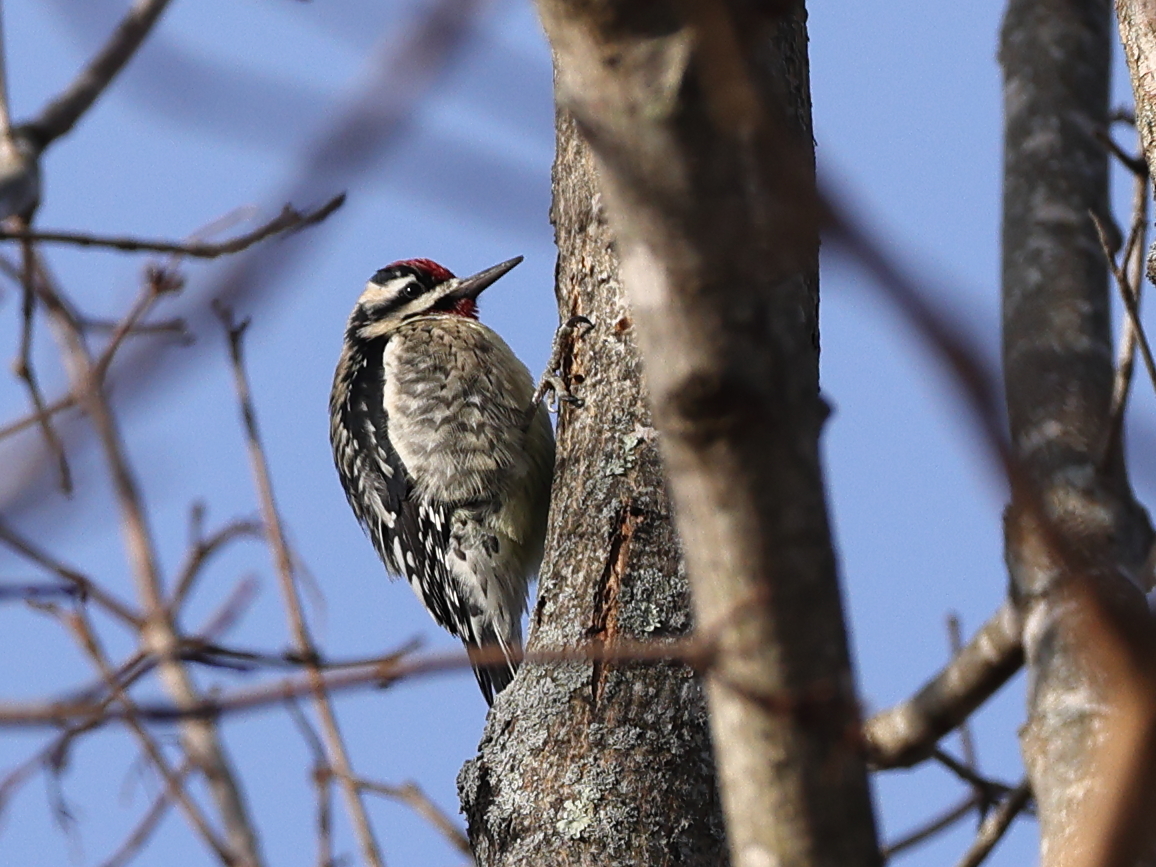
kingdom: Animalia
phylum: Chordata
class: Aves
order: Piciformes
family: Picidae
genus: Sphyrapicus
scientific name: Sphyrapicus varius
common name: Yellow-bellied sapsucker
